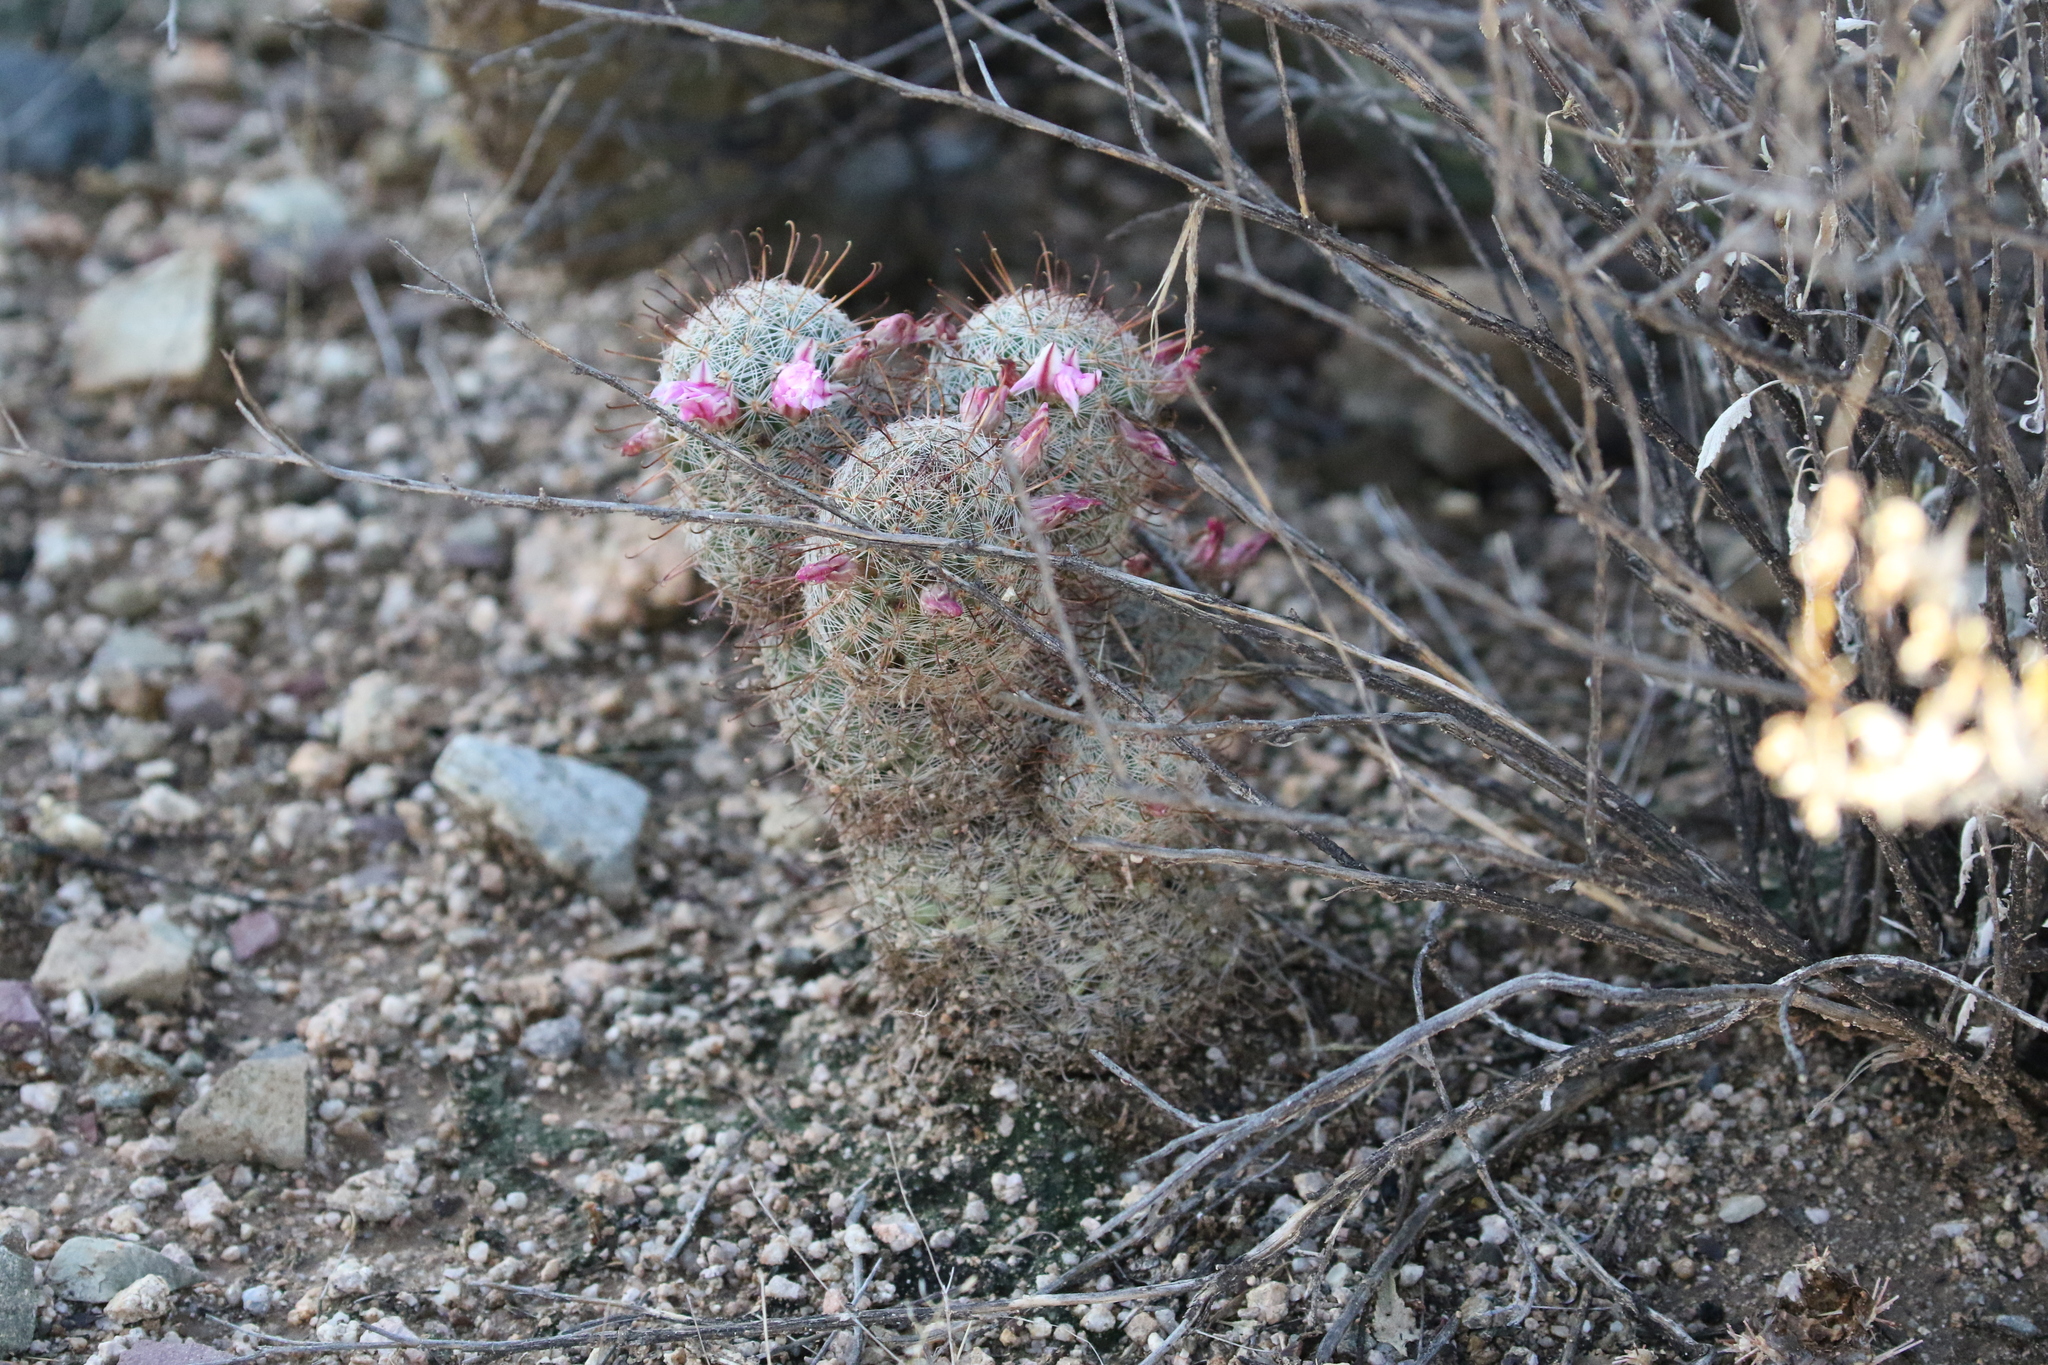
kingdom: Plantae
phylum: Tracheophyta
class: Magnoliopsida
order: Caryophyllales
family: Cactaceae
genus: Cochemiea
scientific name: Cochemiea grahamii
